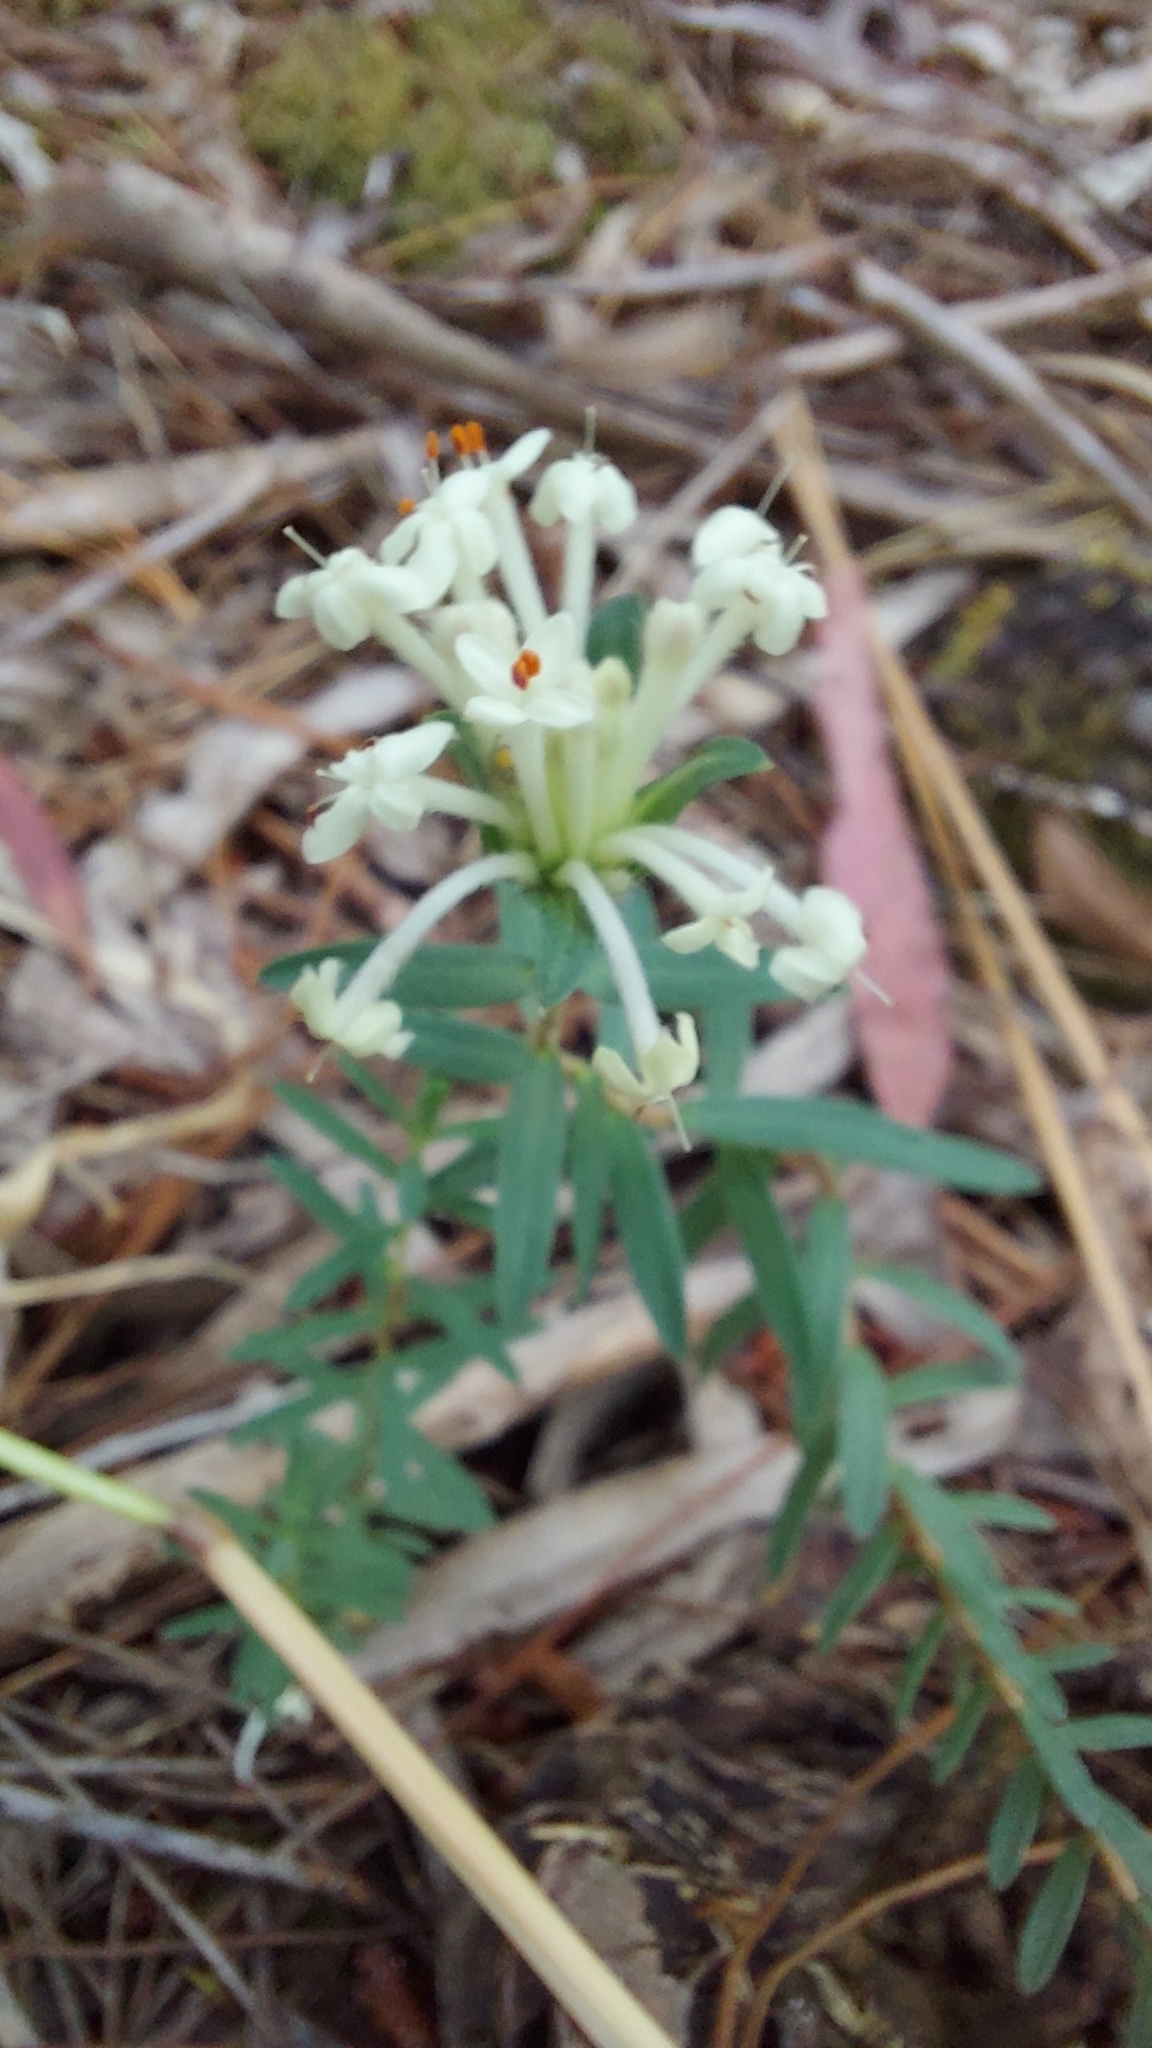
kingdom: Plantae
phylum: Tracheophyta
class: Magnoliopsida
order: Malvales
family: Thymelaeaceae
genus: Pimelea
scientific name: Pimelea linifolia
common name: Queen-of-the-bush
